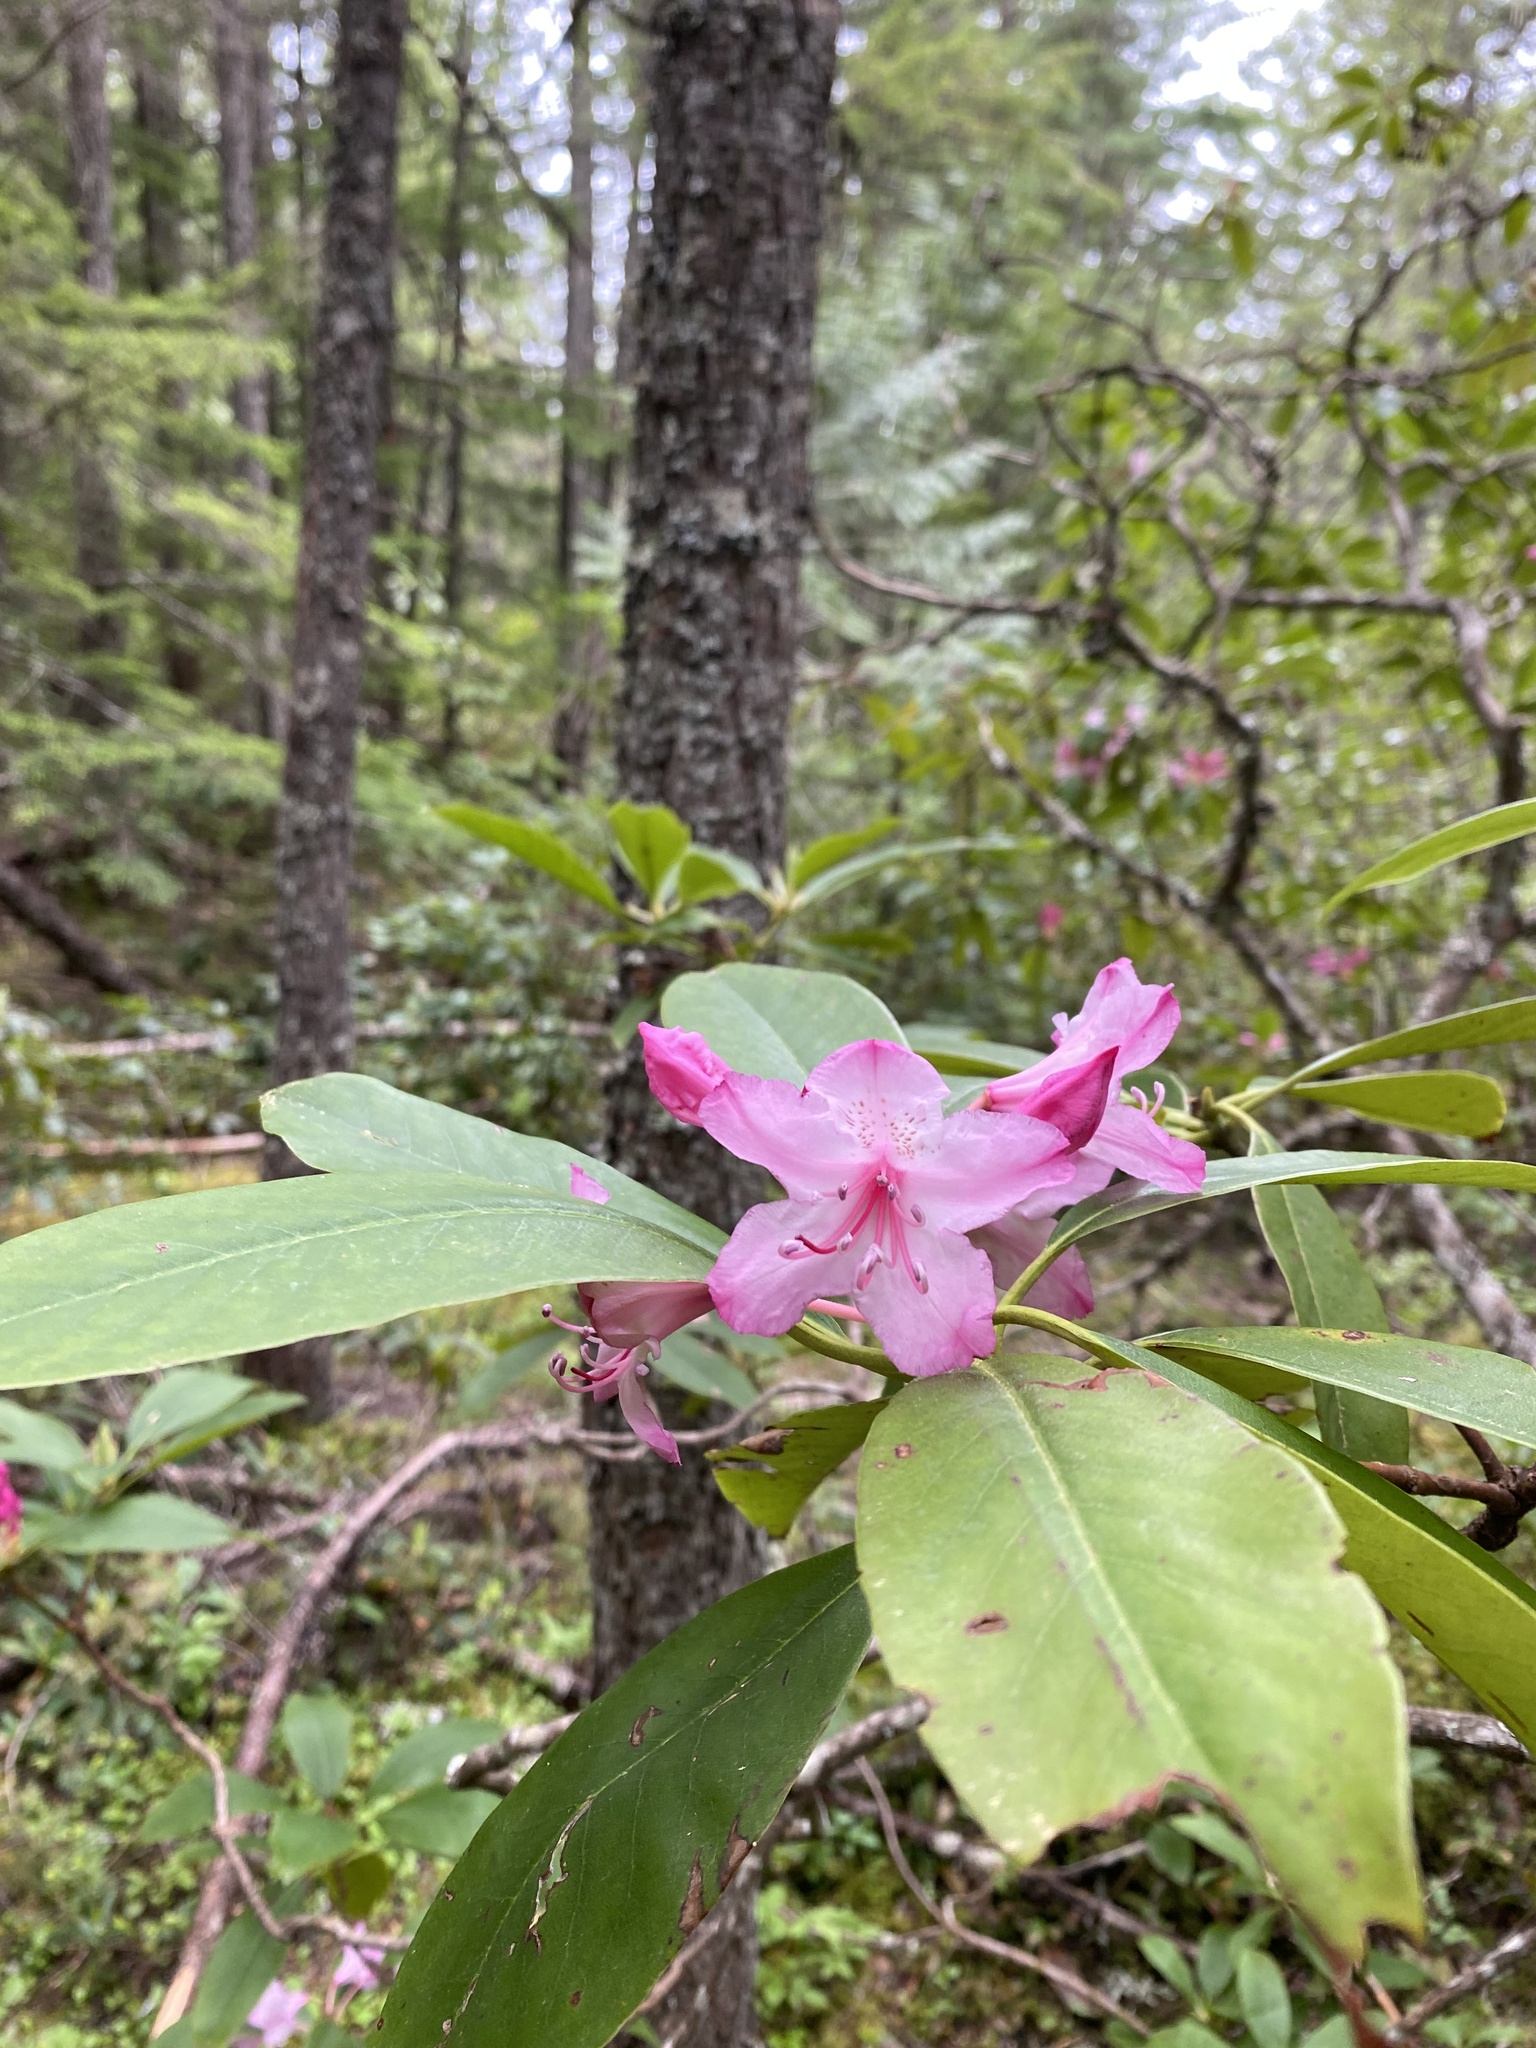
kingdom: Plantae
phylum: Tracheophyta
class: Magnoliopsida
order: Ericales
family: Ericaceae
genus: Rhododendron
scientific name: Rhododendron macrophyllum
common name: California rose bay
